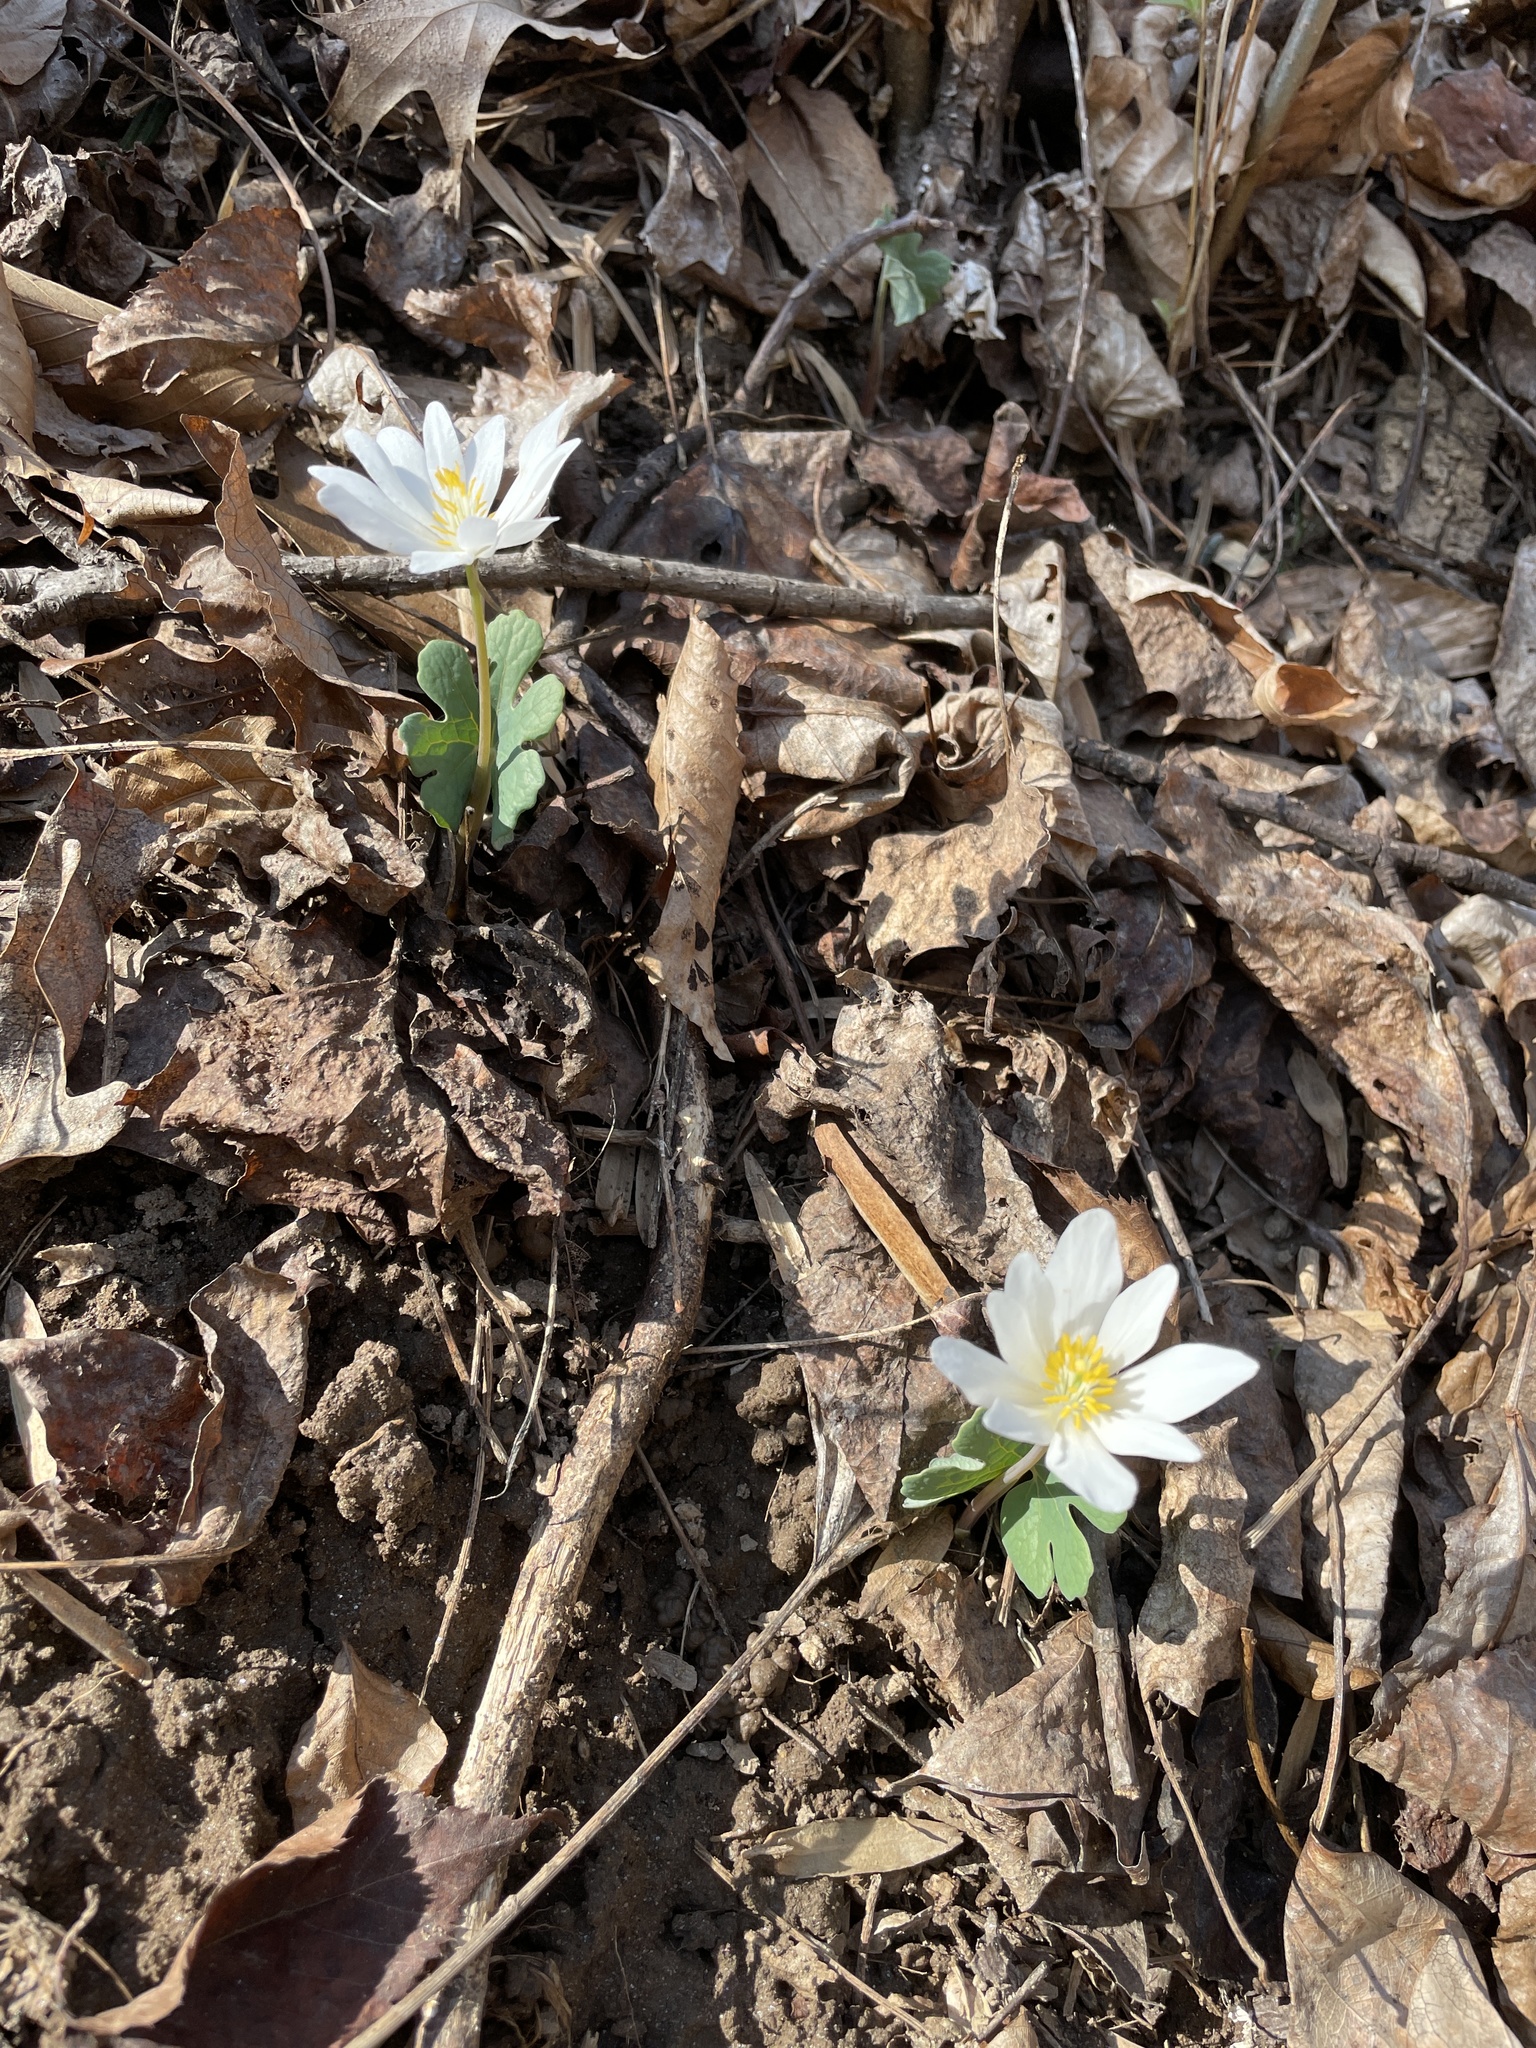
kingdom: Plantae
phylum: Tracheophyta
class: Magnoliopsida
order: Ranunculales
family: Papaveraceae
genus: Sanguinaria
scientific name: Sanguinaria canadensis
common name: Bloodroot
